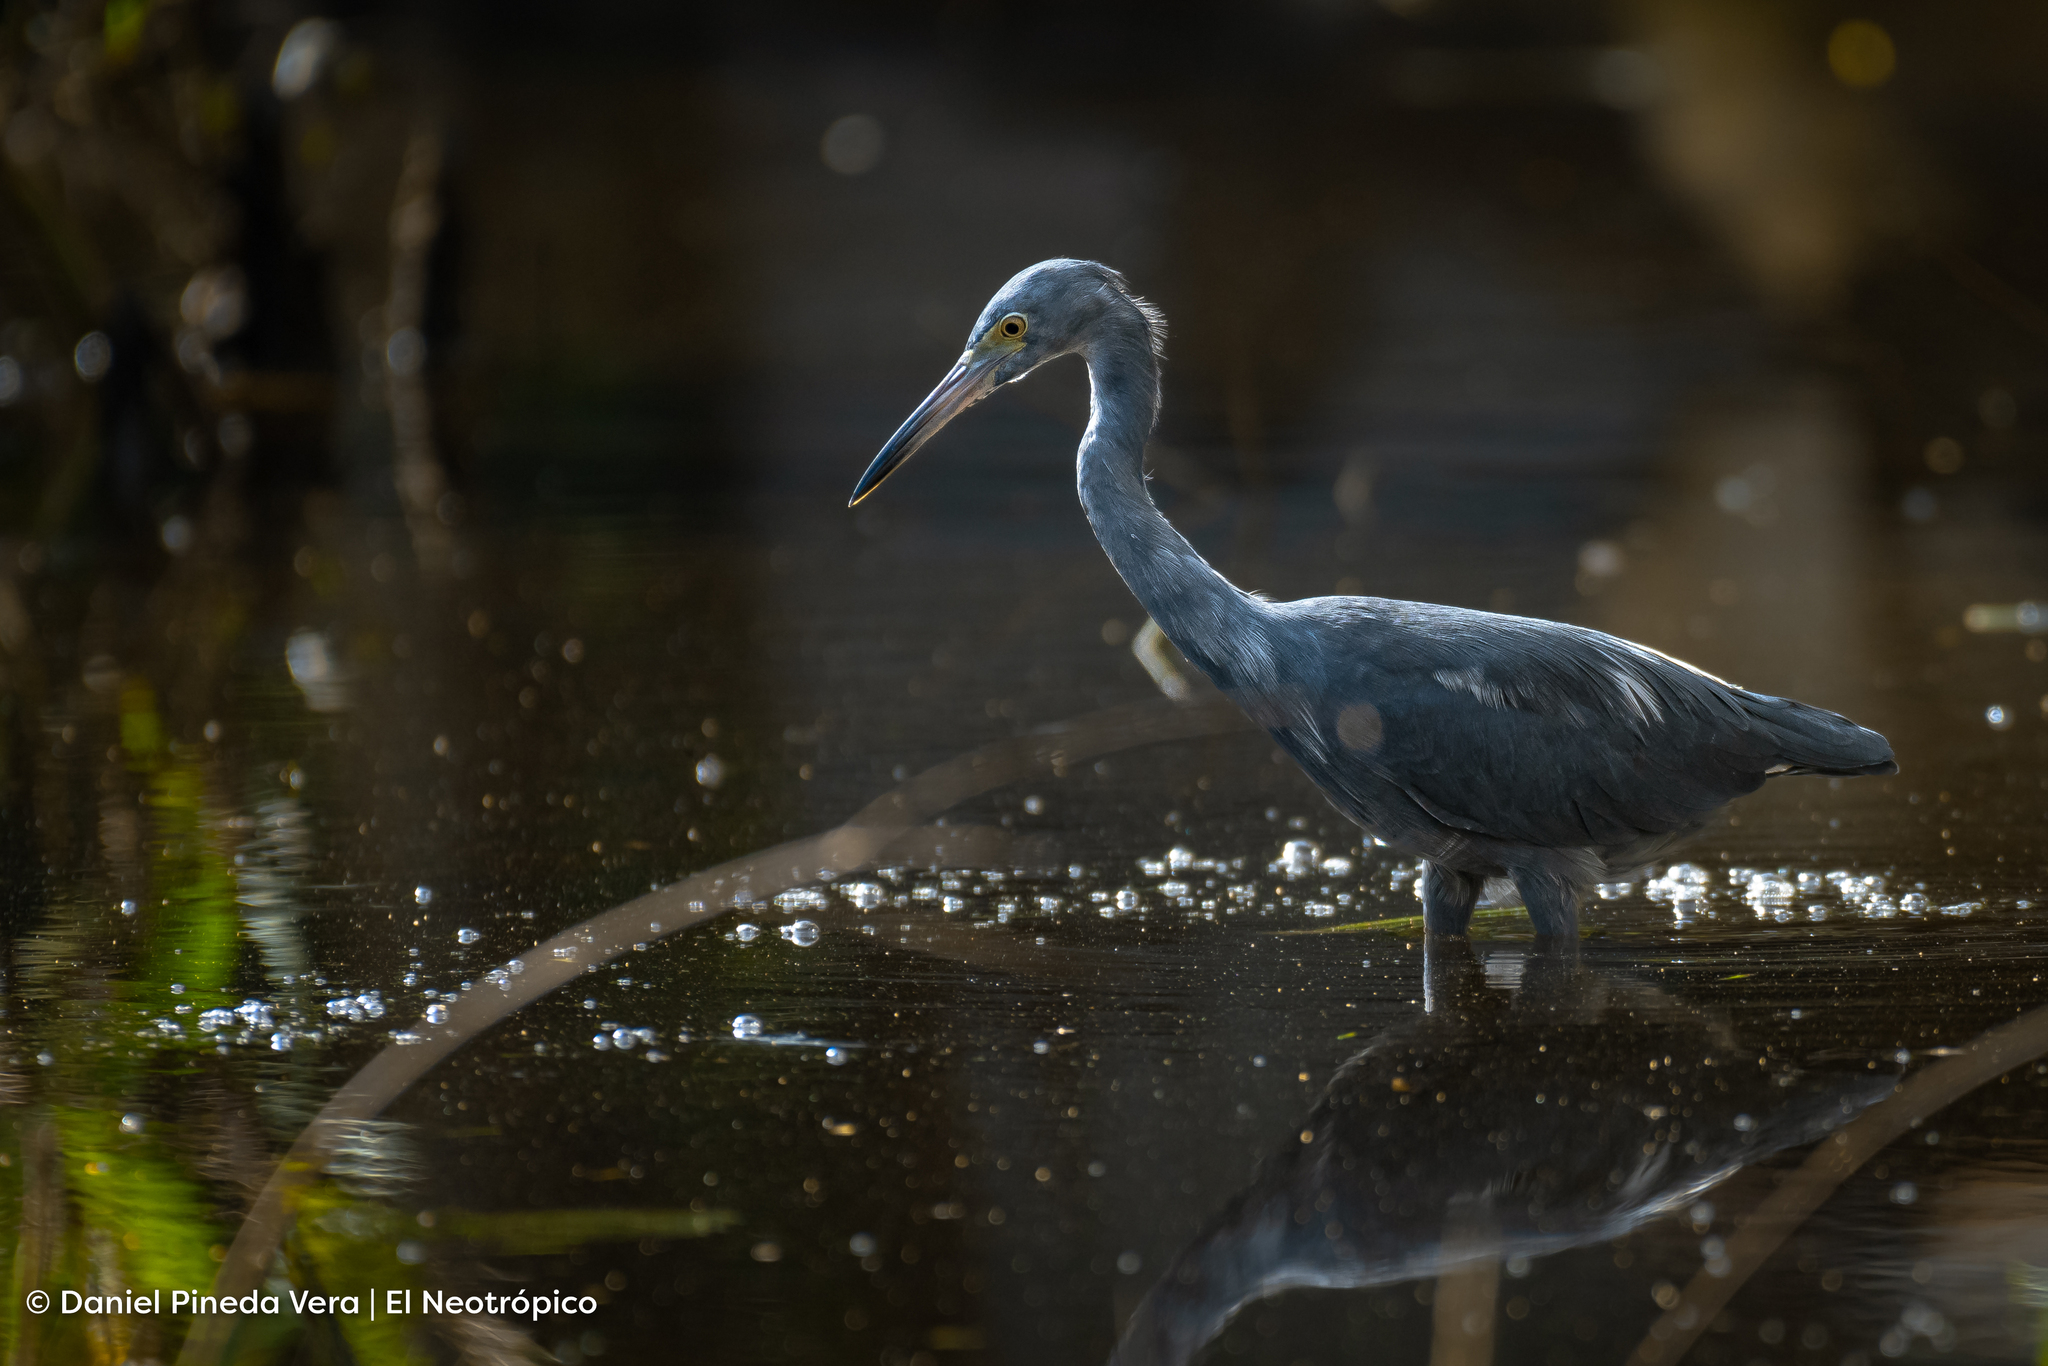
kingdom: Animalia
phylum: Chordata
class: Aves
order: Pelecaniformes
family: Ardeidae
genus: Egretta
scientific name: Egretta caerulea
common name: Little blue heron
